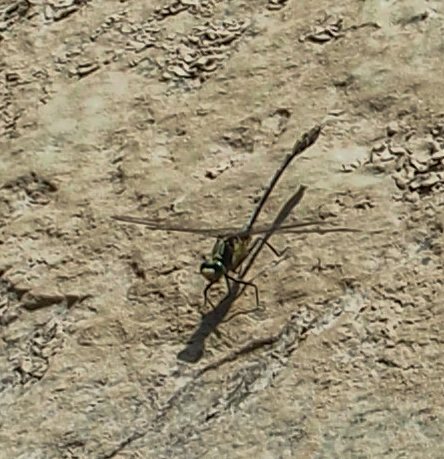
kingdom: Animalia
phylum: Arthropoda
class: Insecta
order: Odonata
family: Gomphidae
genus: Dromogomphus
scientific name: Dromogomphus spinosus
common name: Black-shouldered spinyleg
